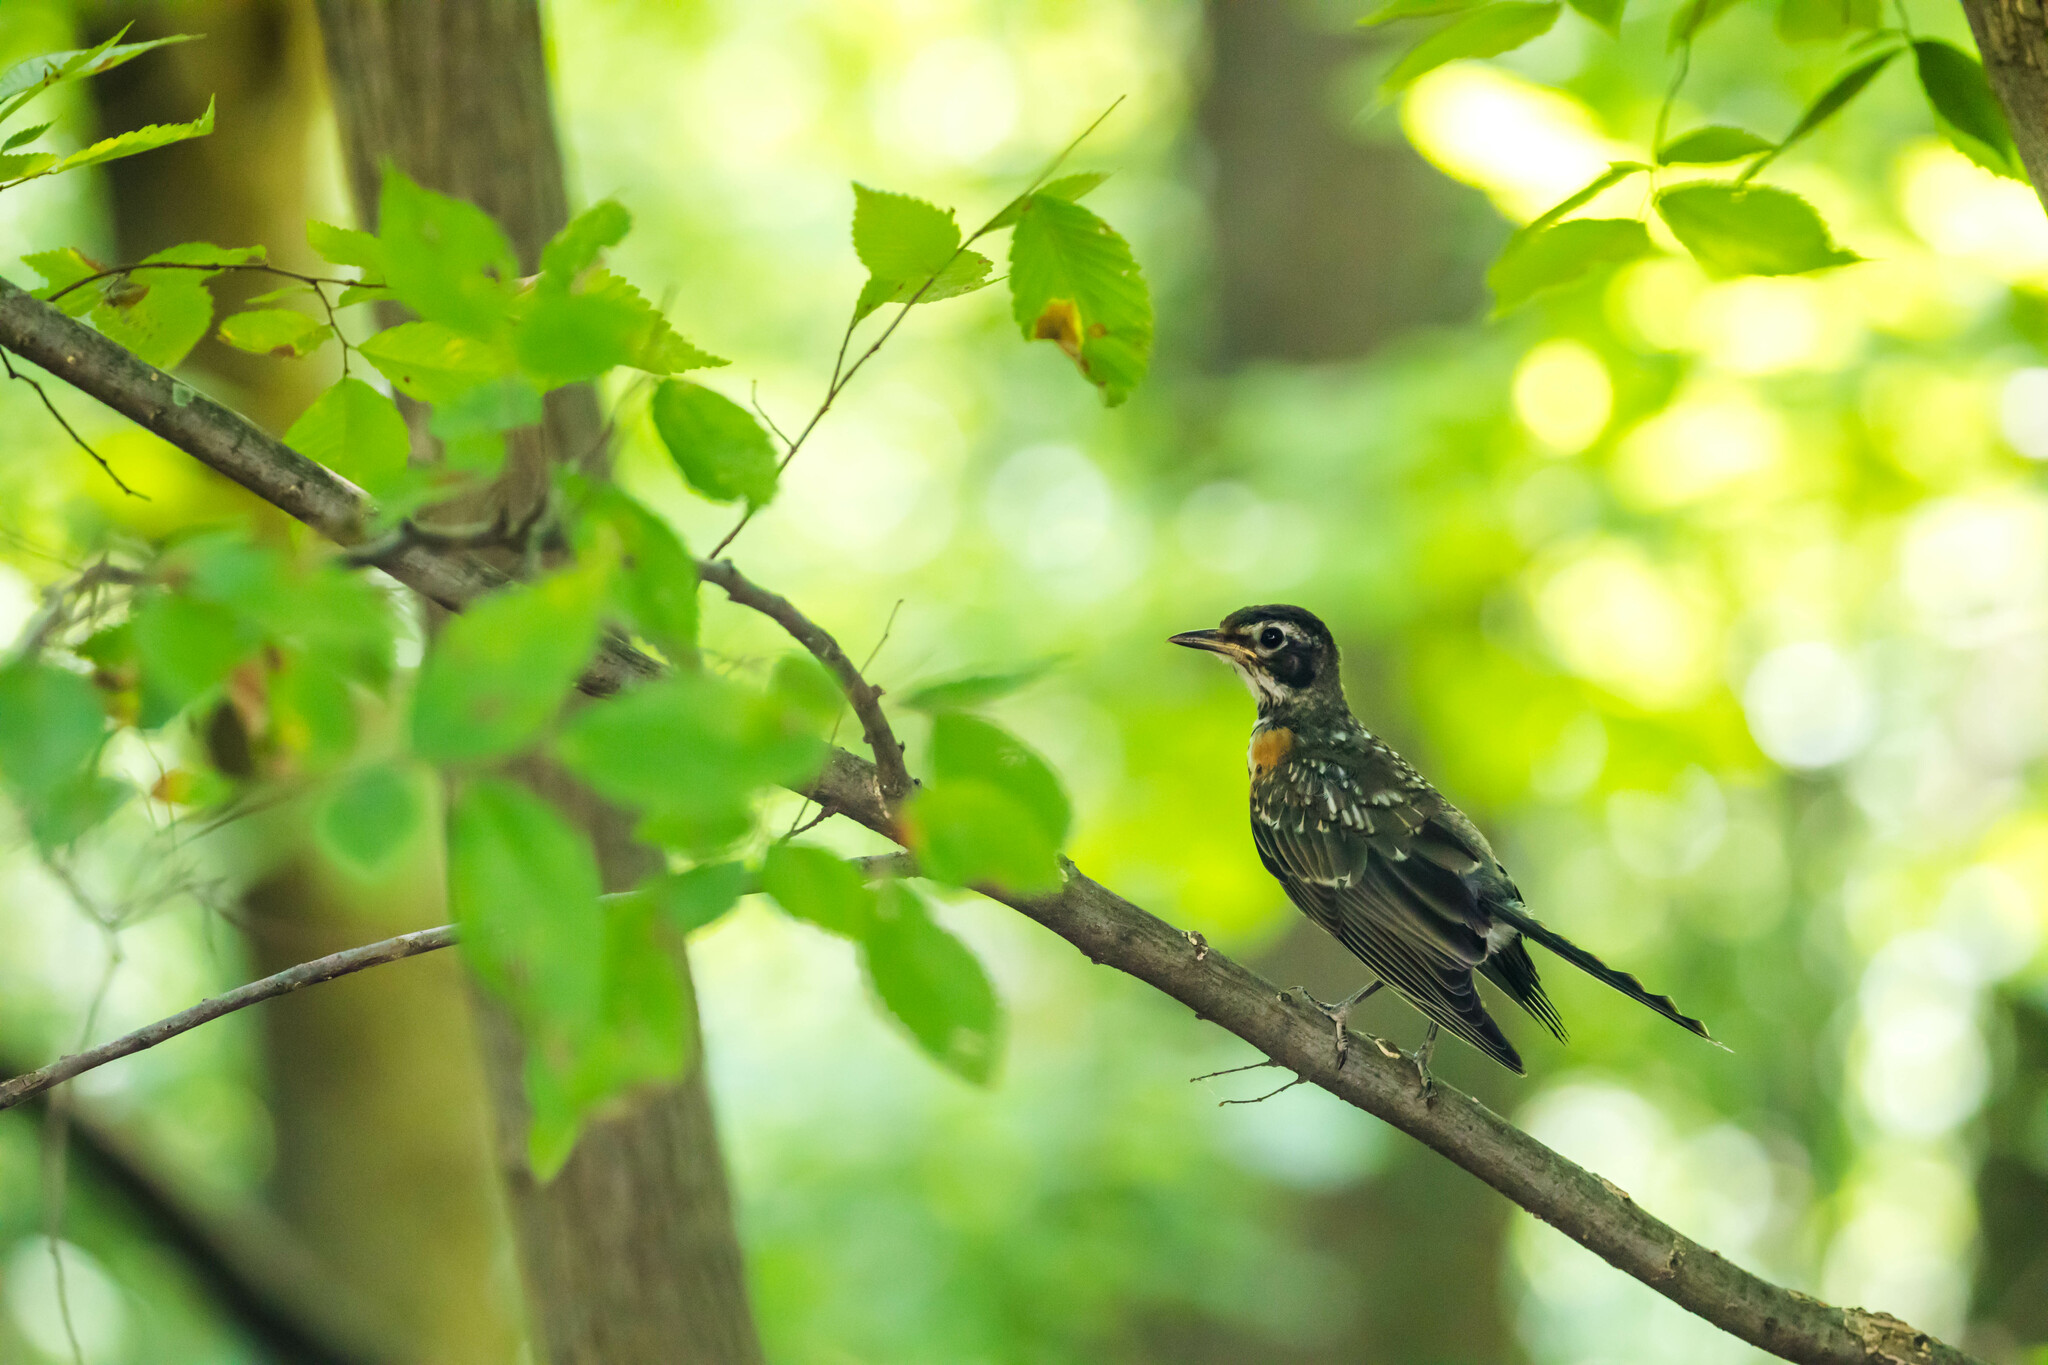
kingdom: Animalia
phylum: Chordata
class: Aves
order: Passeriformes
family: Turdidae
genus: Turdus
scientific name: Turdus migratorius
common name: American robin
